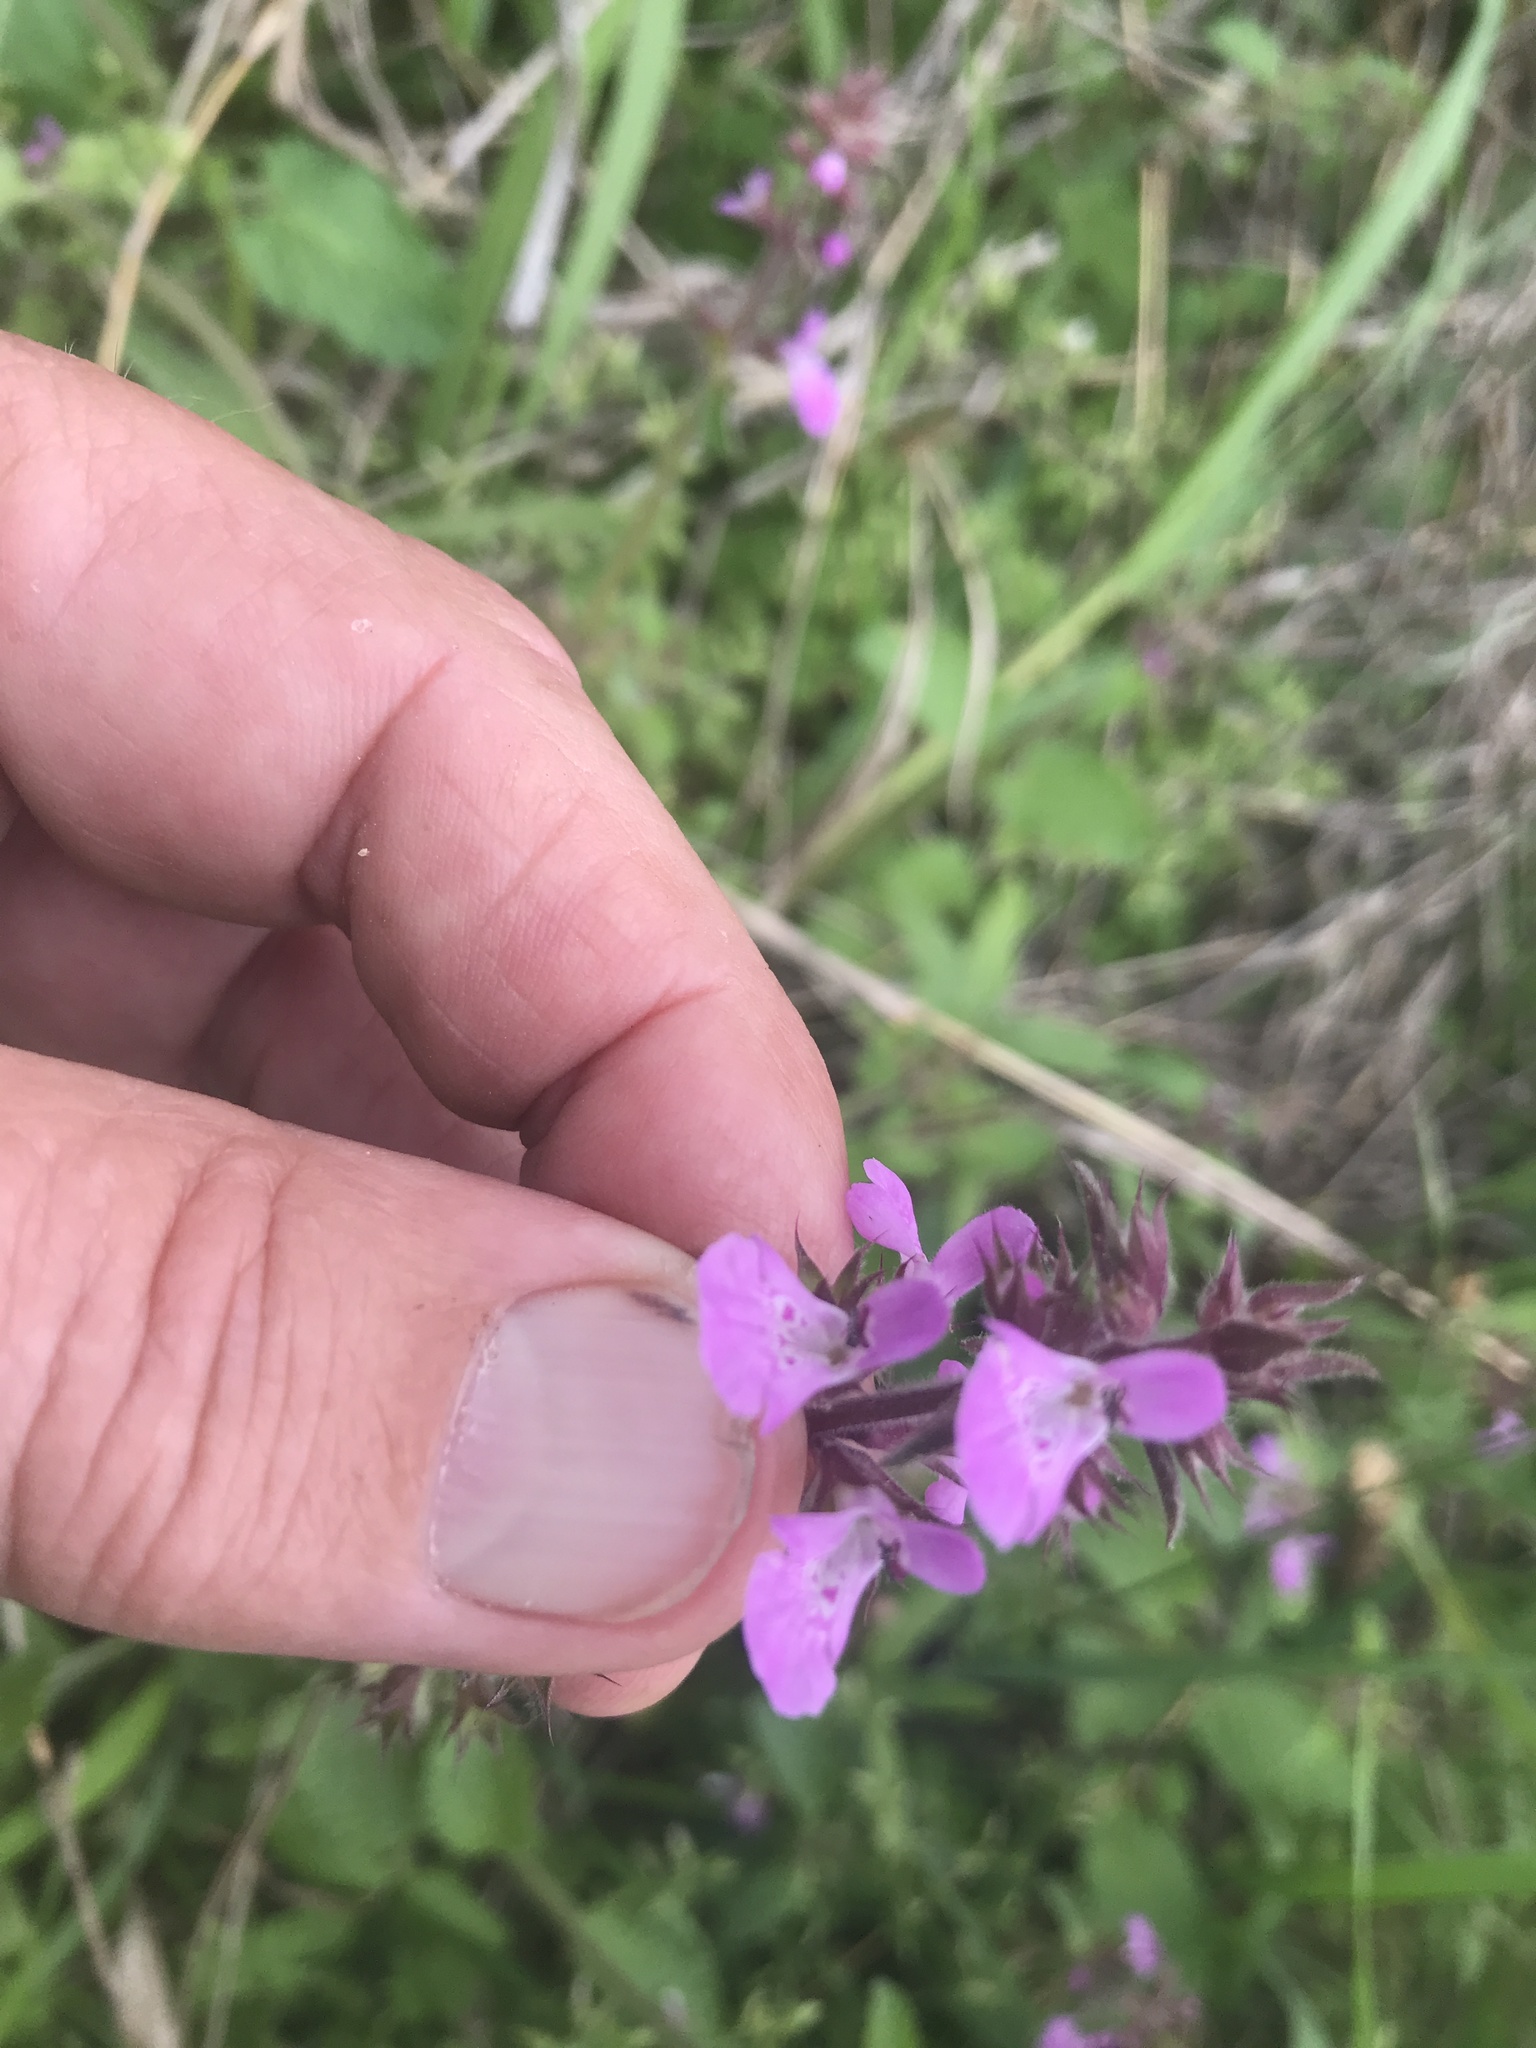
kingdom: Plantae
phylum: Tracheophyta
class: Magnoliopsida
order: Lamiales
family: Lamiaceae
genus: Stachys
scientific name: Stachys drummondii
